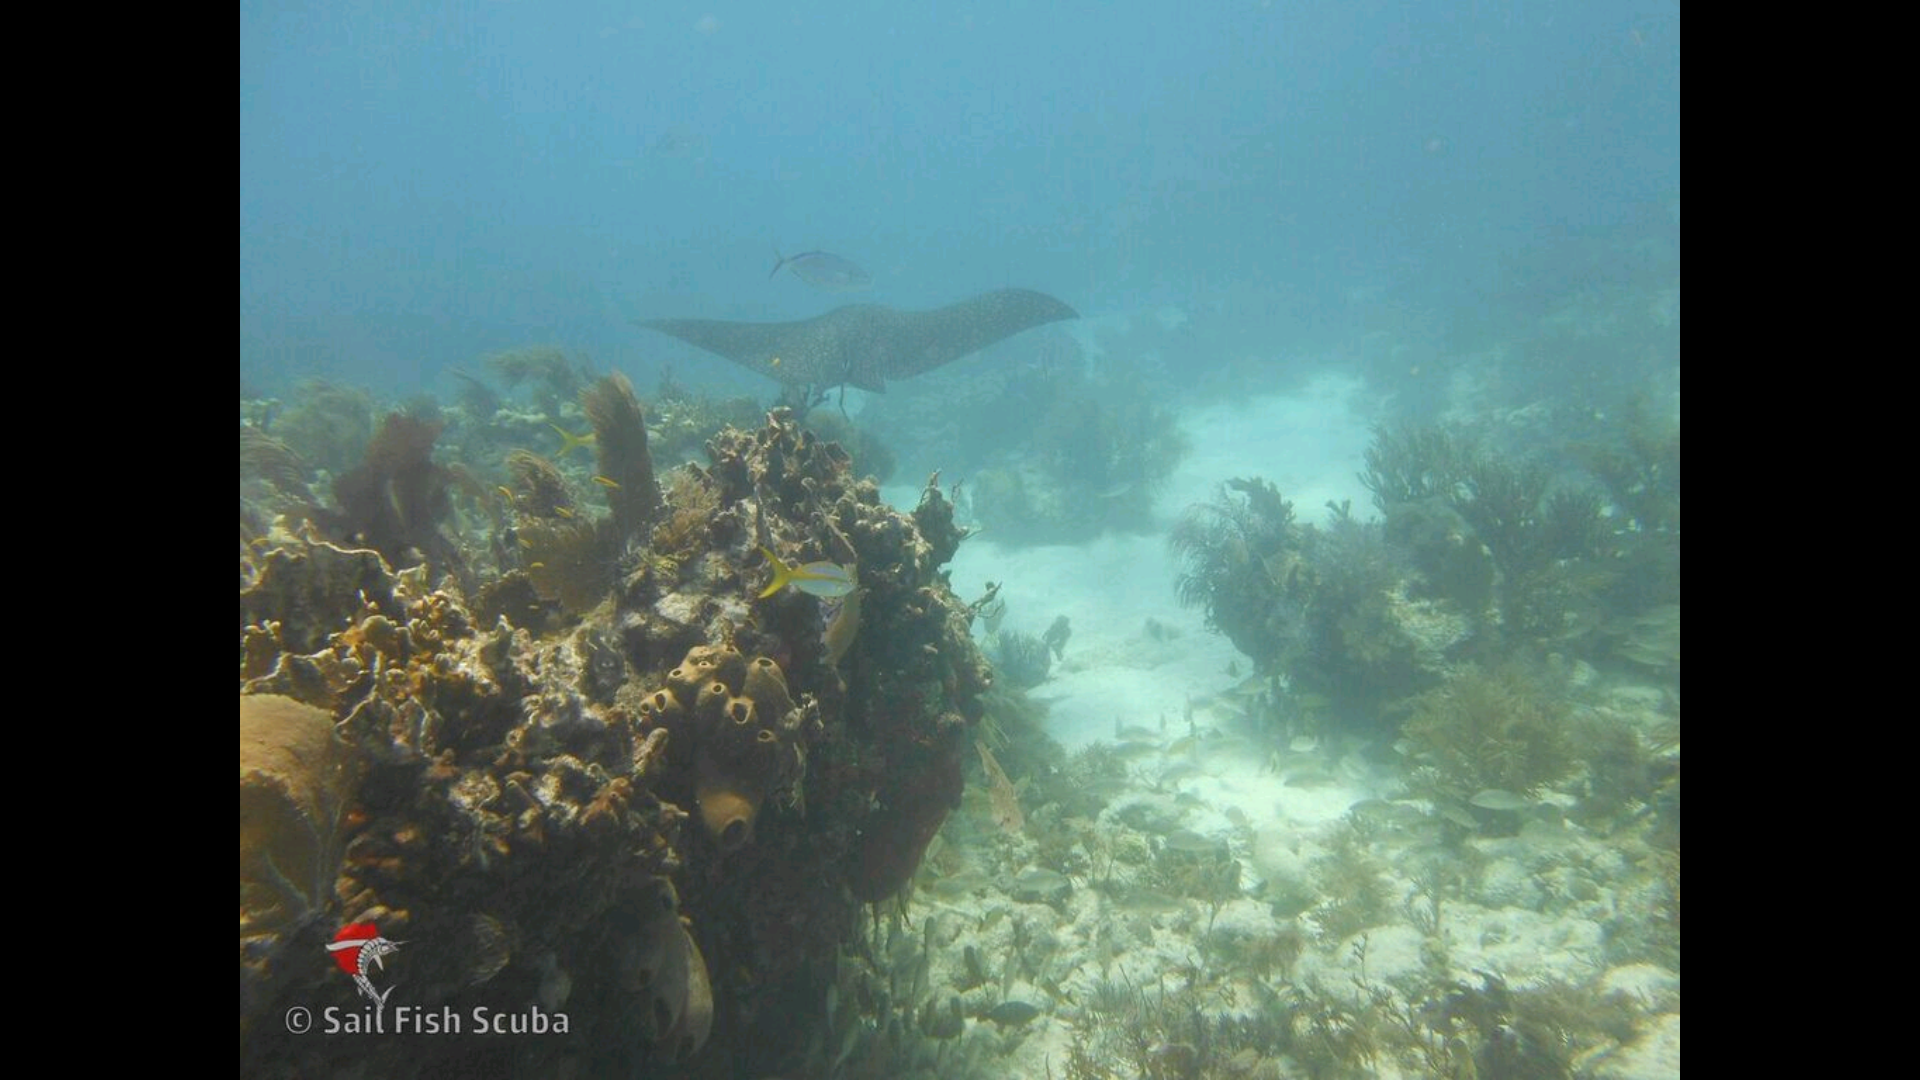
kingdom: Animalia
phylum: Chordata
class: Elasmobranchii
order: Myliobatiformes
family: Myliobatidae
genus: Aetobatus
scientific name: Aetobatus narinari
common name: Spotted eagle ray
